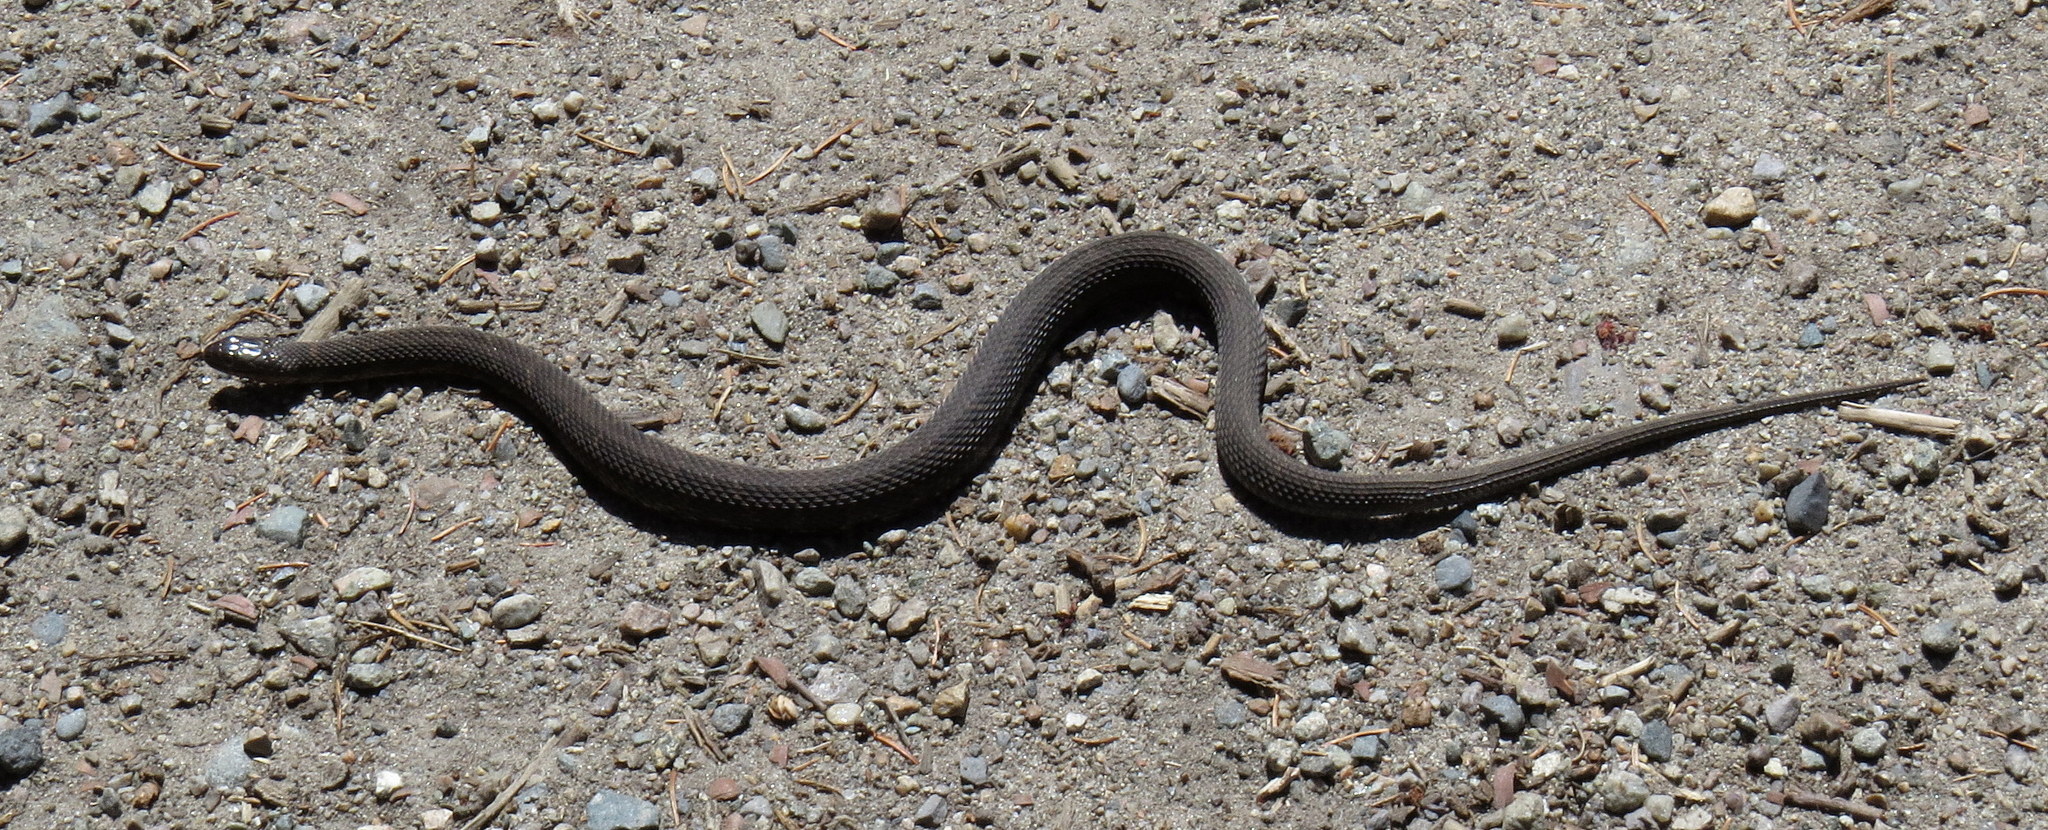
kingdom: Animalia
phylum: Chordata
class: Squamata
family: Colubridae
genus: Nerodia
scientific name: Nerodia sipedon
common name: Northern water snake
